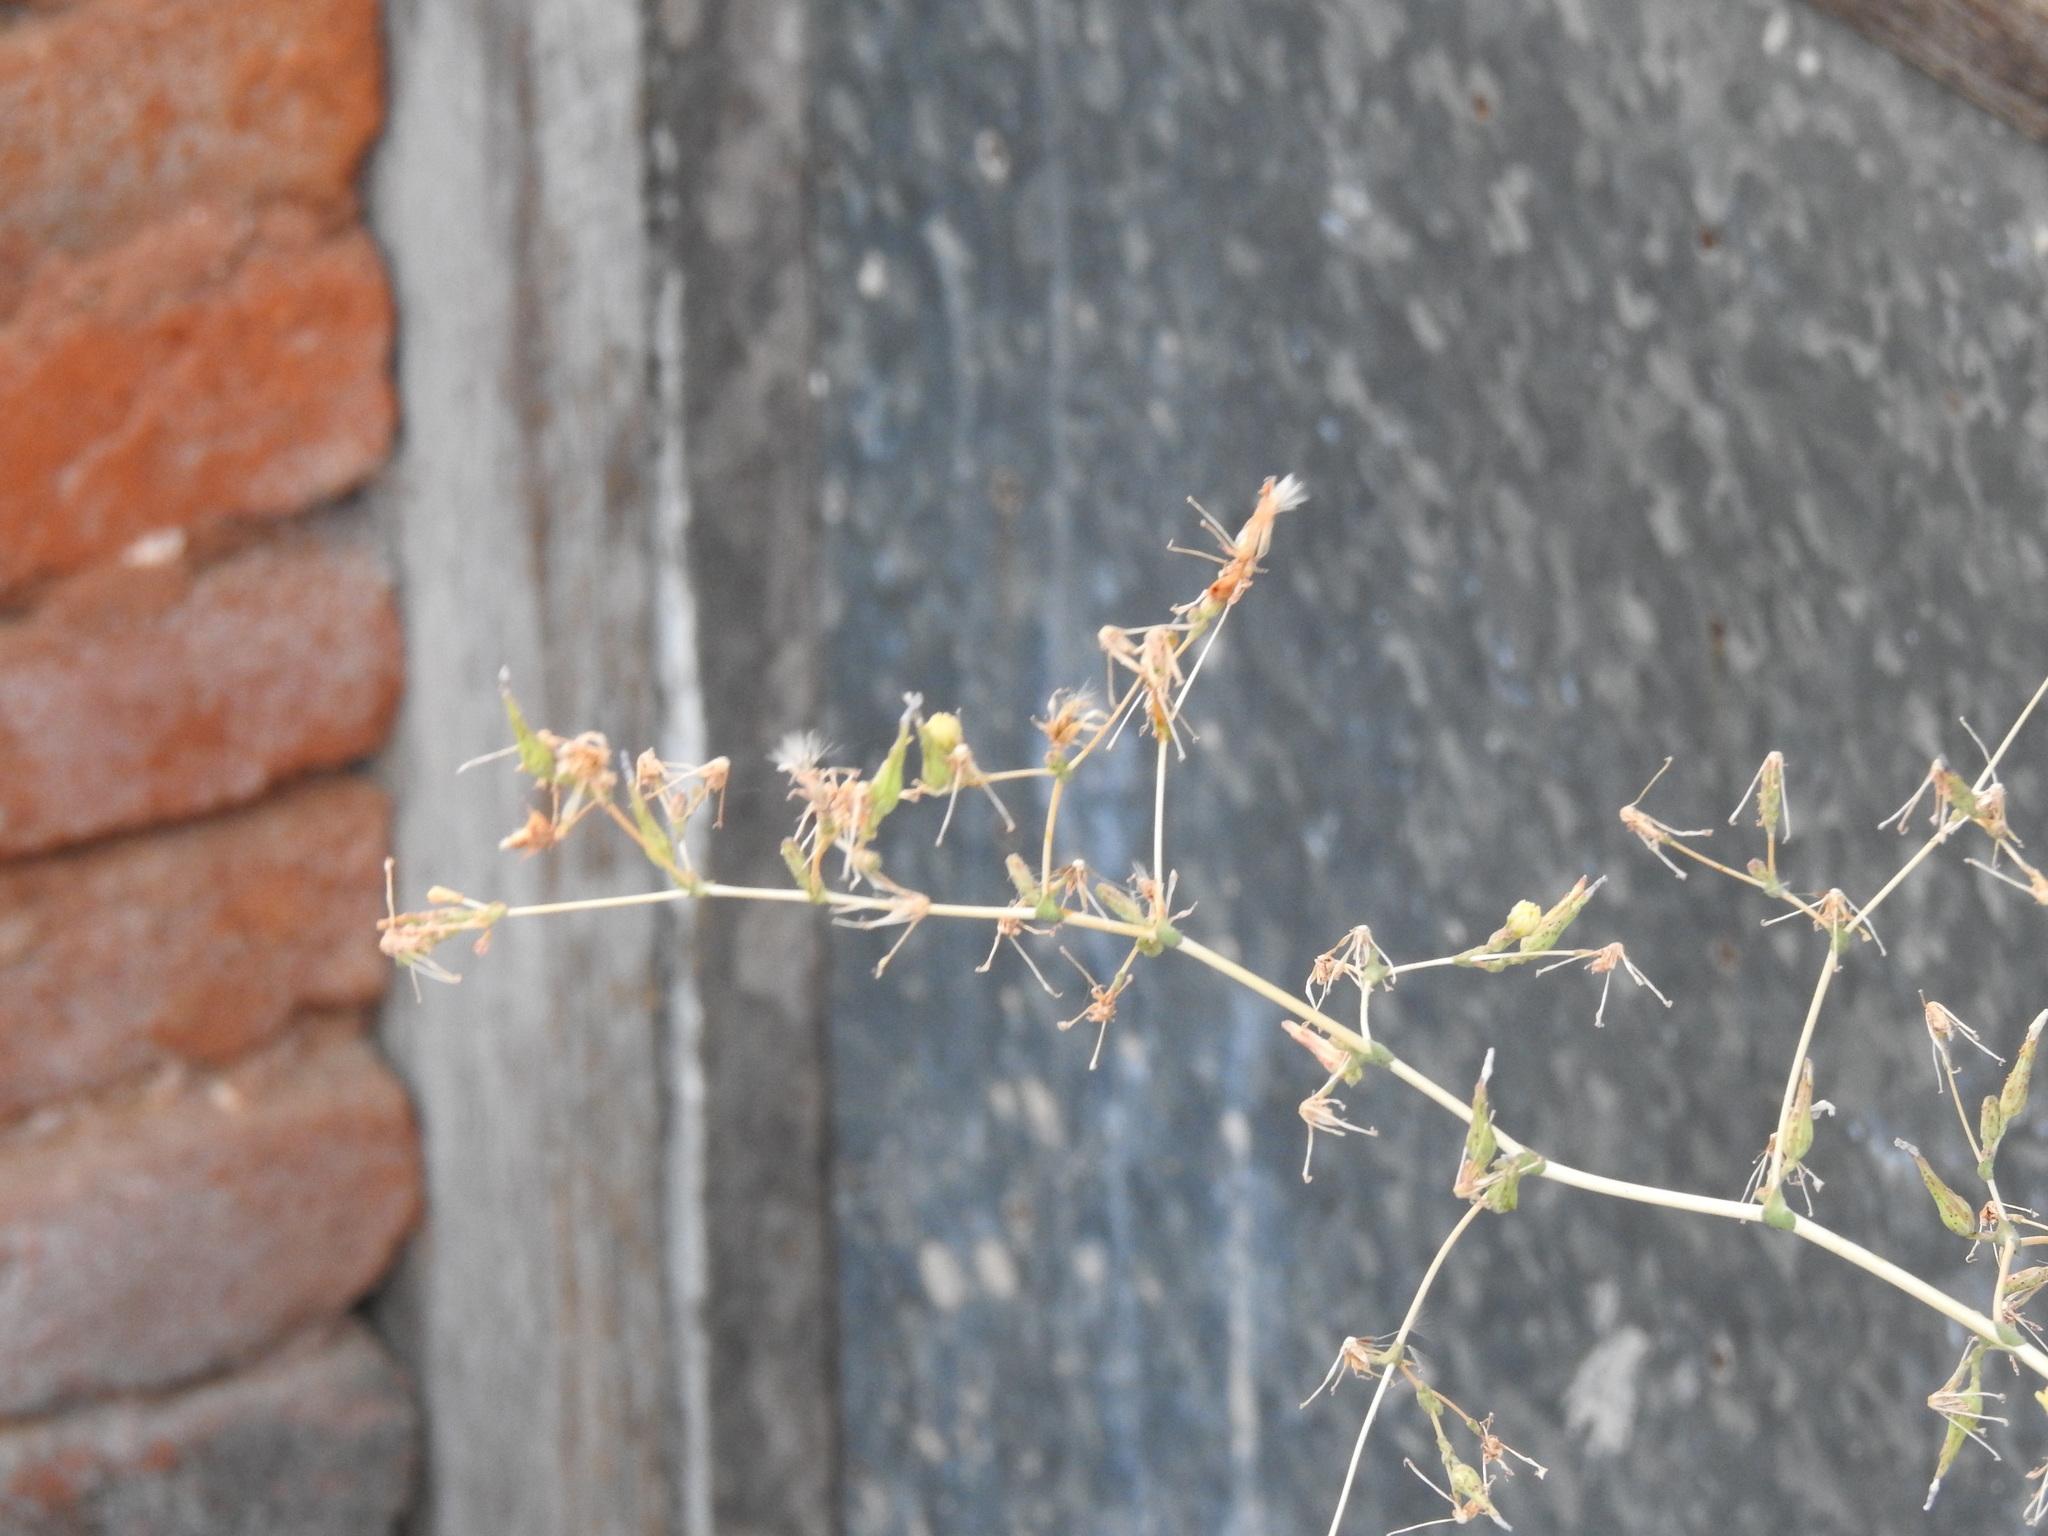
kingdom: Plantae
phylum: Tracheophyta
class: Magnoliopsida
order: Asterales
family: Asteraceae
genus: Lactuca
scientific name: Lactuca serriola
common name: Prickly lettuce
